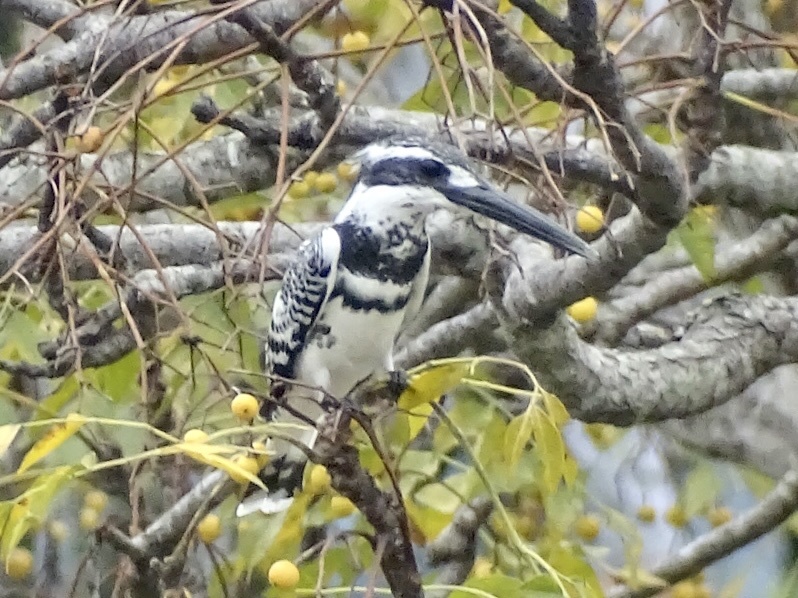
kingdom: Animalia
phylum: Chordata
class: Aves
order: Coraciiformes
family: Alcedinidae
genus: Ceryle
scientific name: Ceryle rudis
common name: Pied kingfisher
